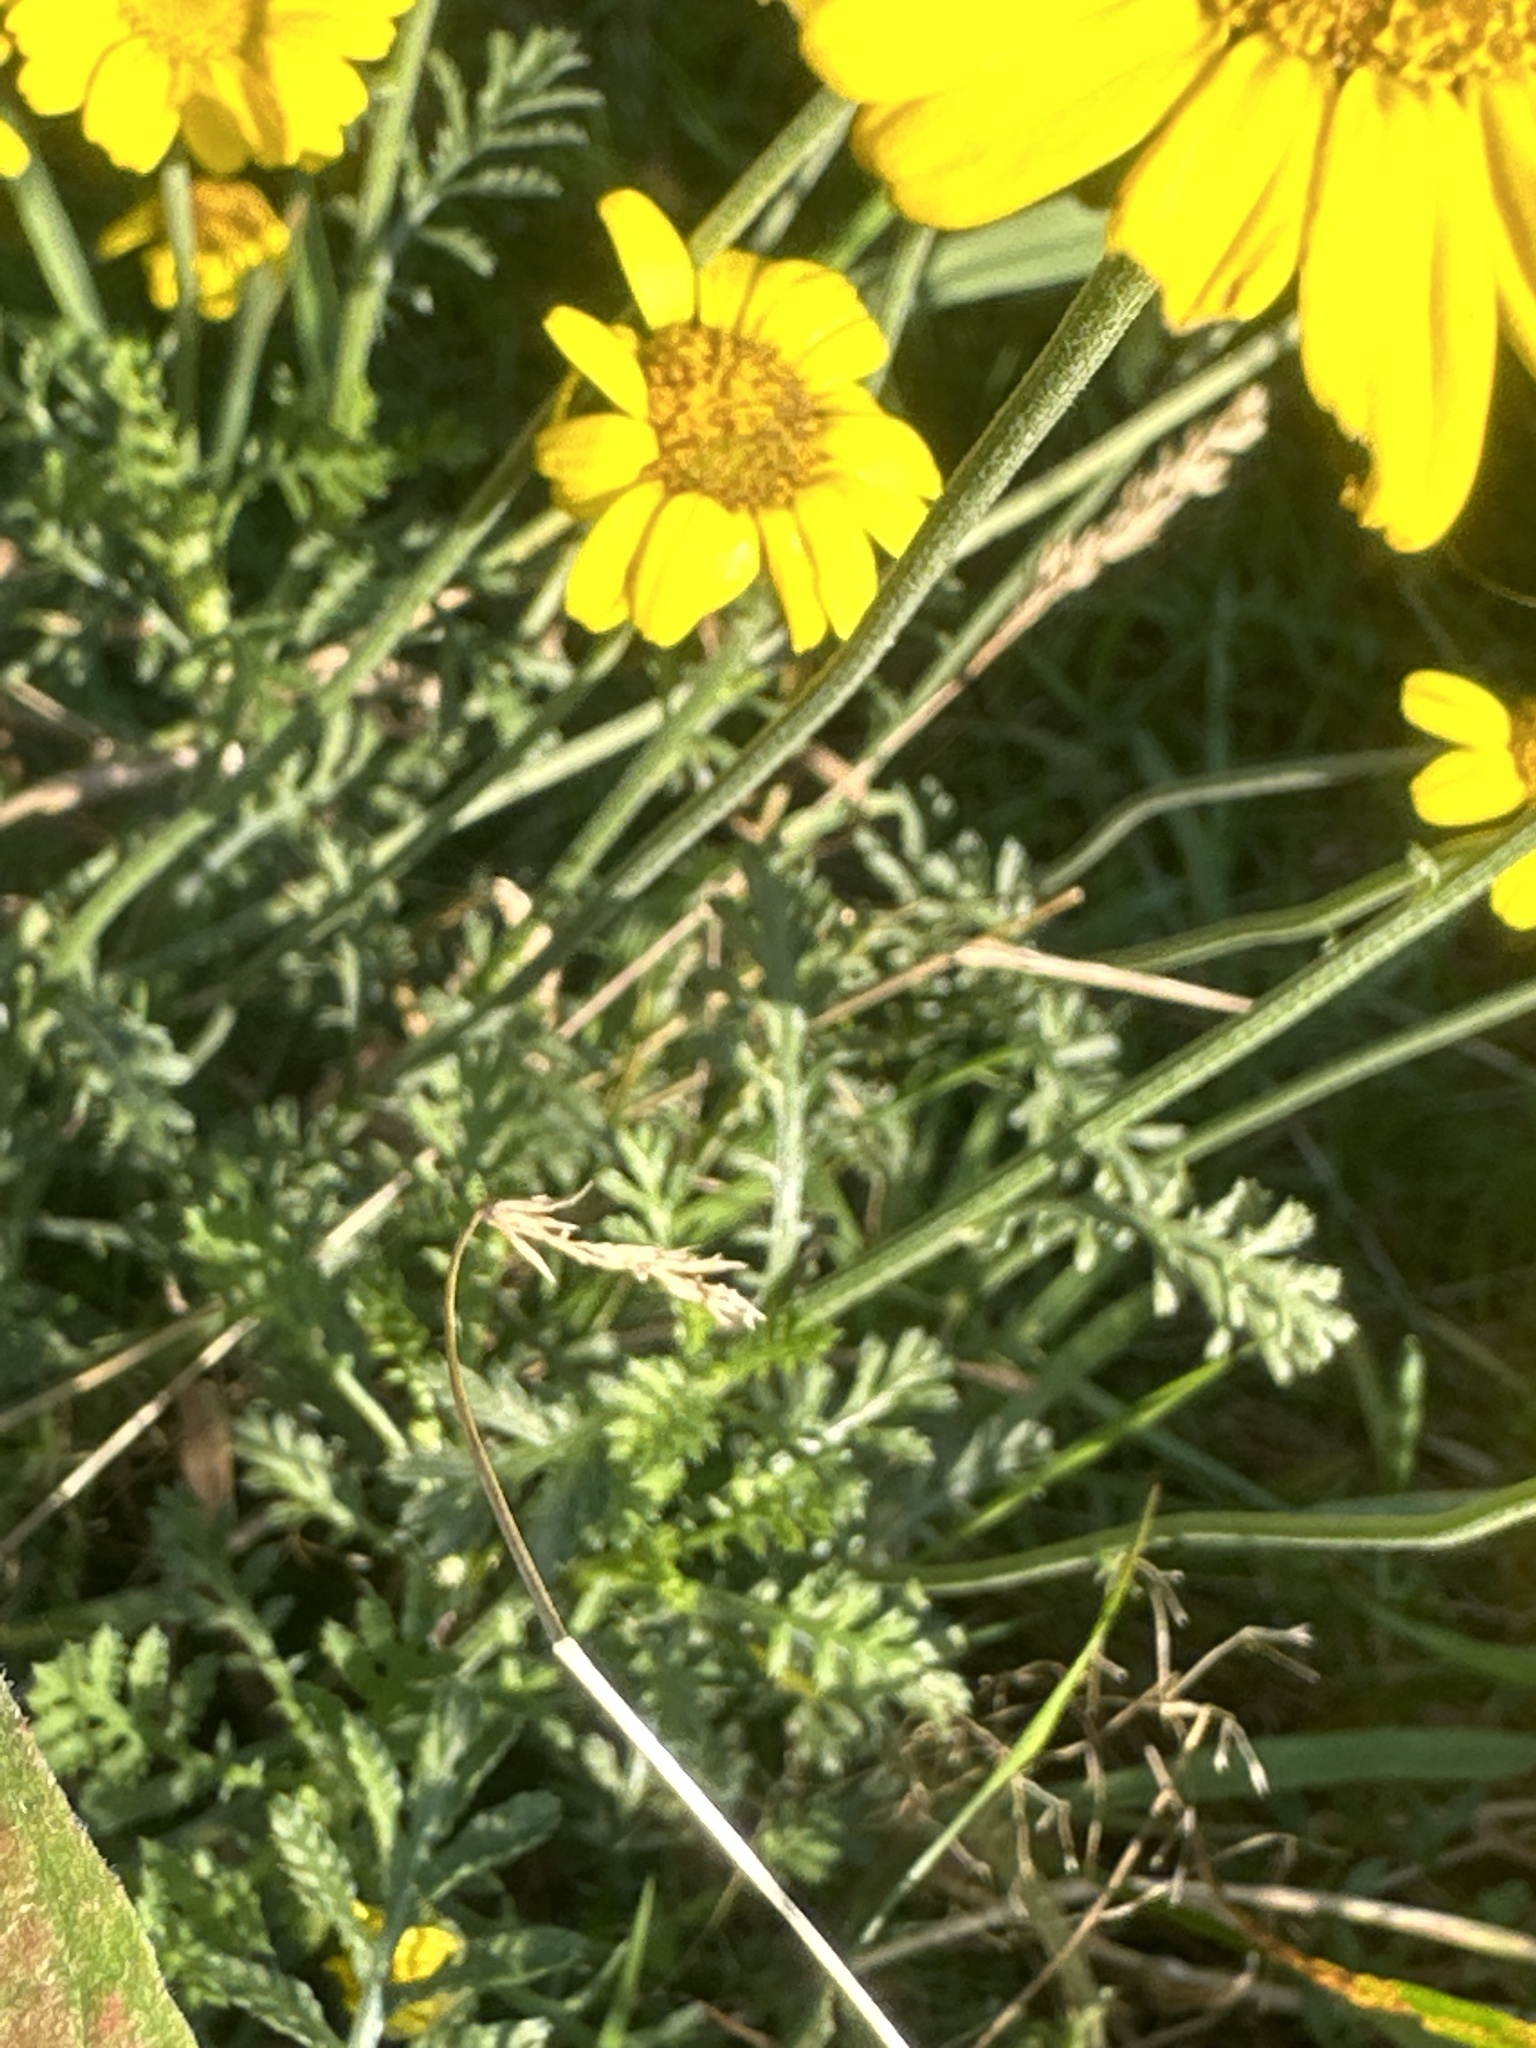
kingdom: Plantae
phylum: Tracheophyta
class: Magnoliopsida
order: Asterales
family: Asteraceae
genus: Cota
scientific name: Cota tinctoria
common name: Golden chamomile
